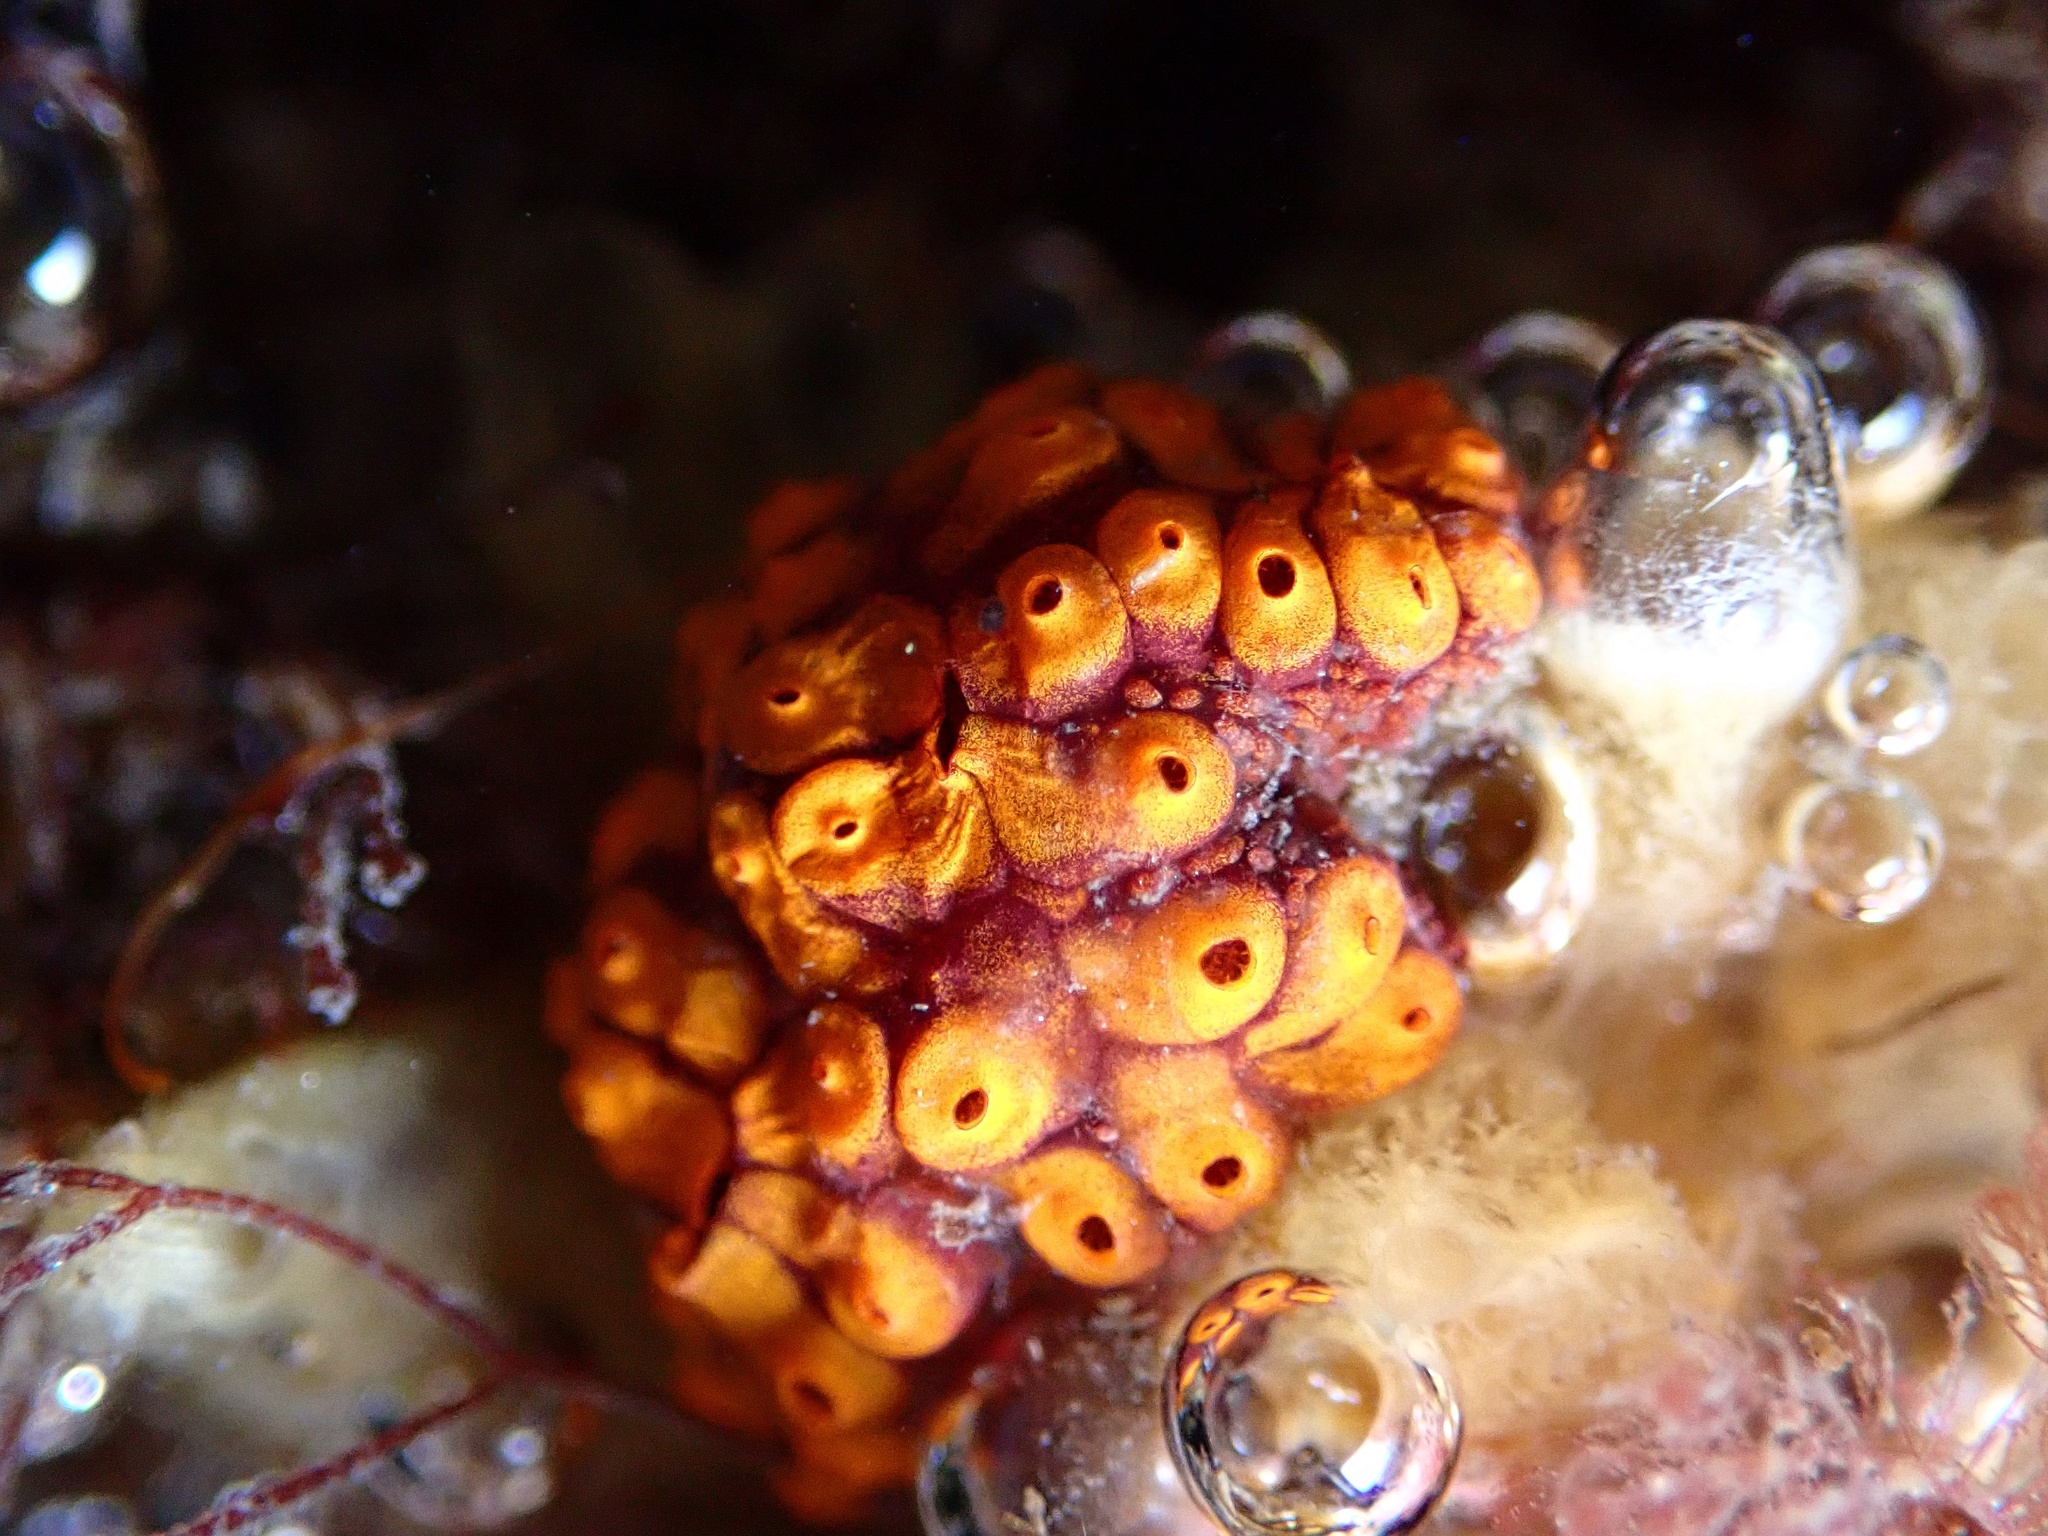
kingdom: Animalia
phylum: Chordata
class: Ascidiacea
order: Stolidobranchia
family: Styelidae
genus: Botrylloides
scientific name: Botrylloides diegensis
